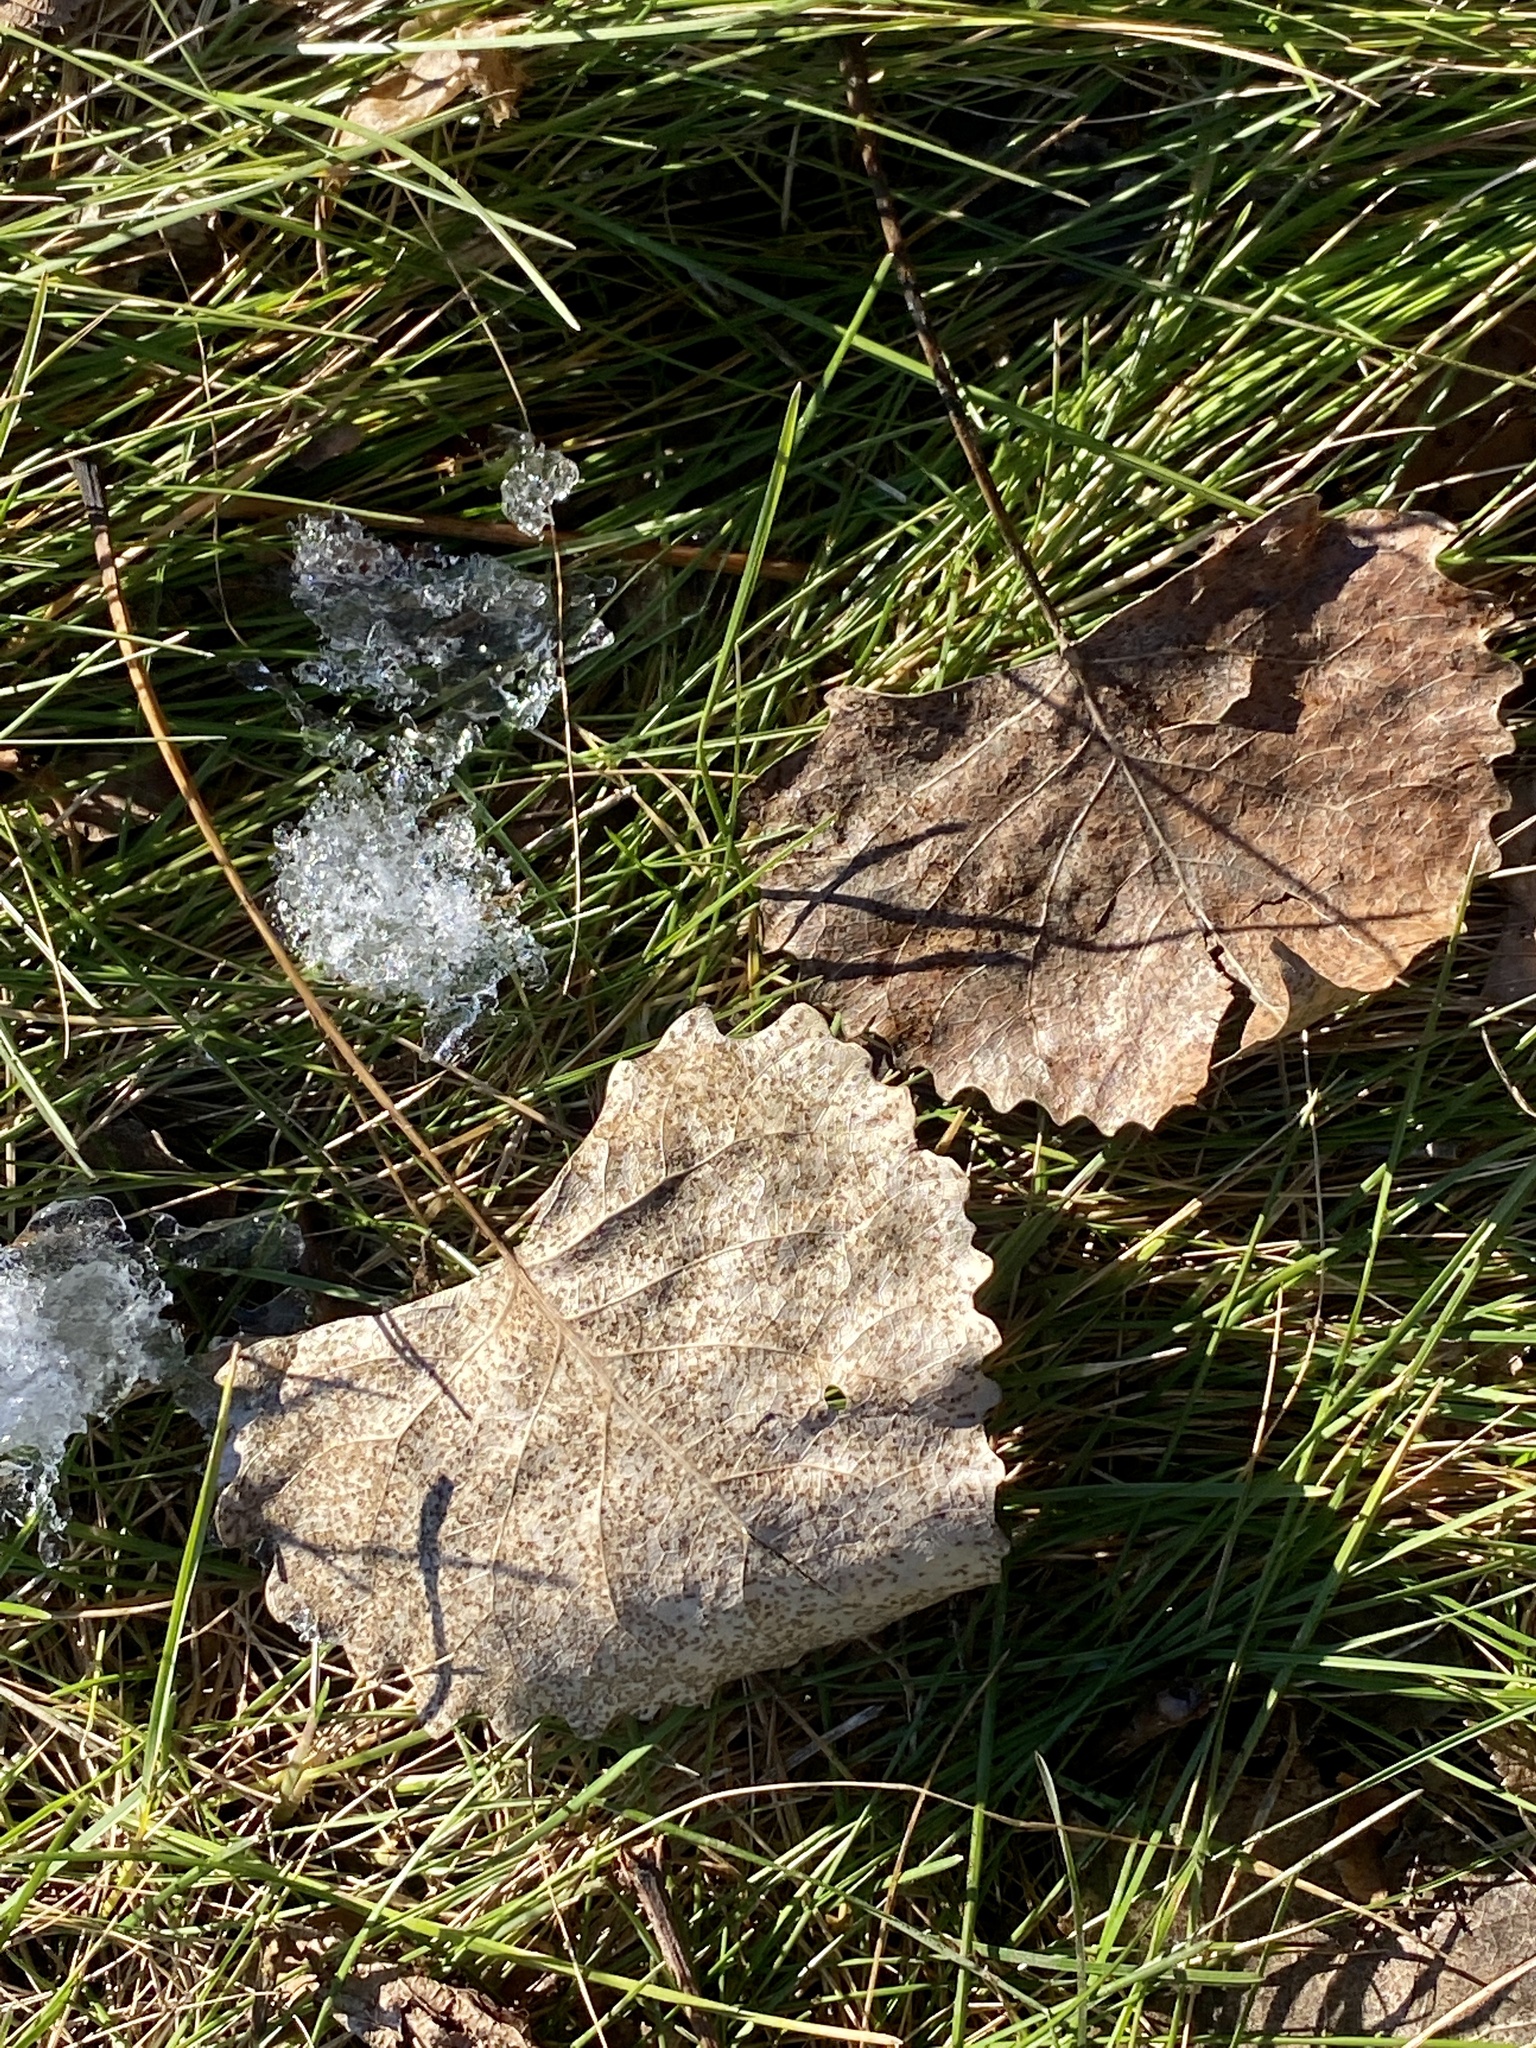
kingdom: Plantae
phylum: Tracheophyta
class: Magnoliopsida
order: Malpighiales
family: Salicaceae
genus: Populus
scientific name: Populus deltoides
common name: Eastern cottonwood
